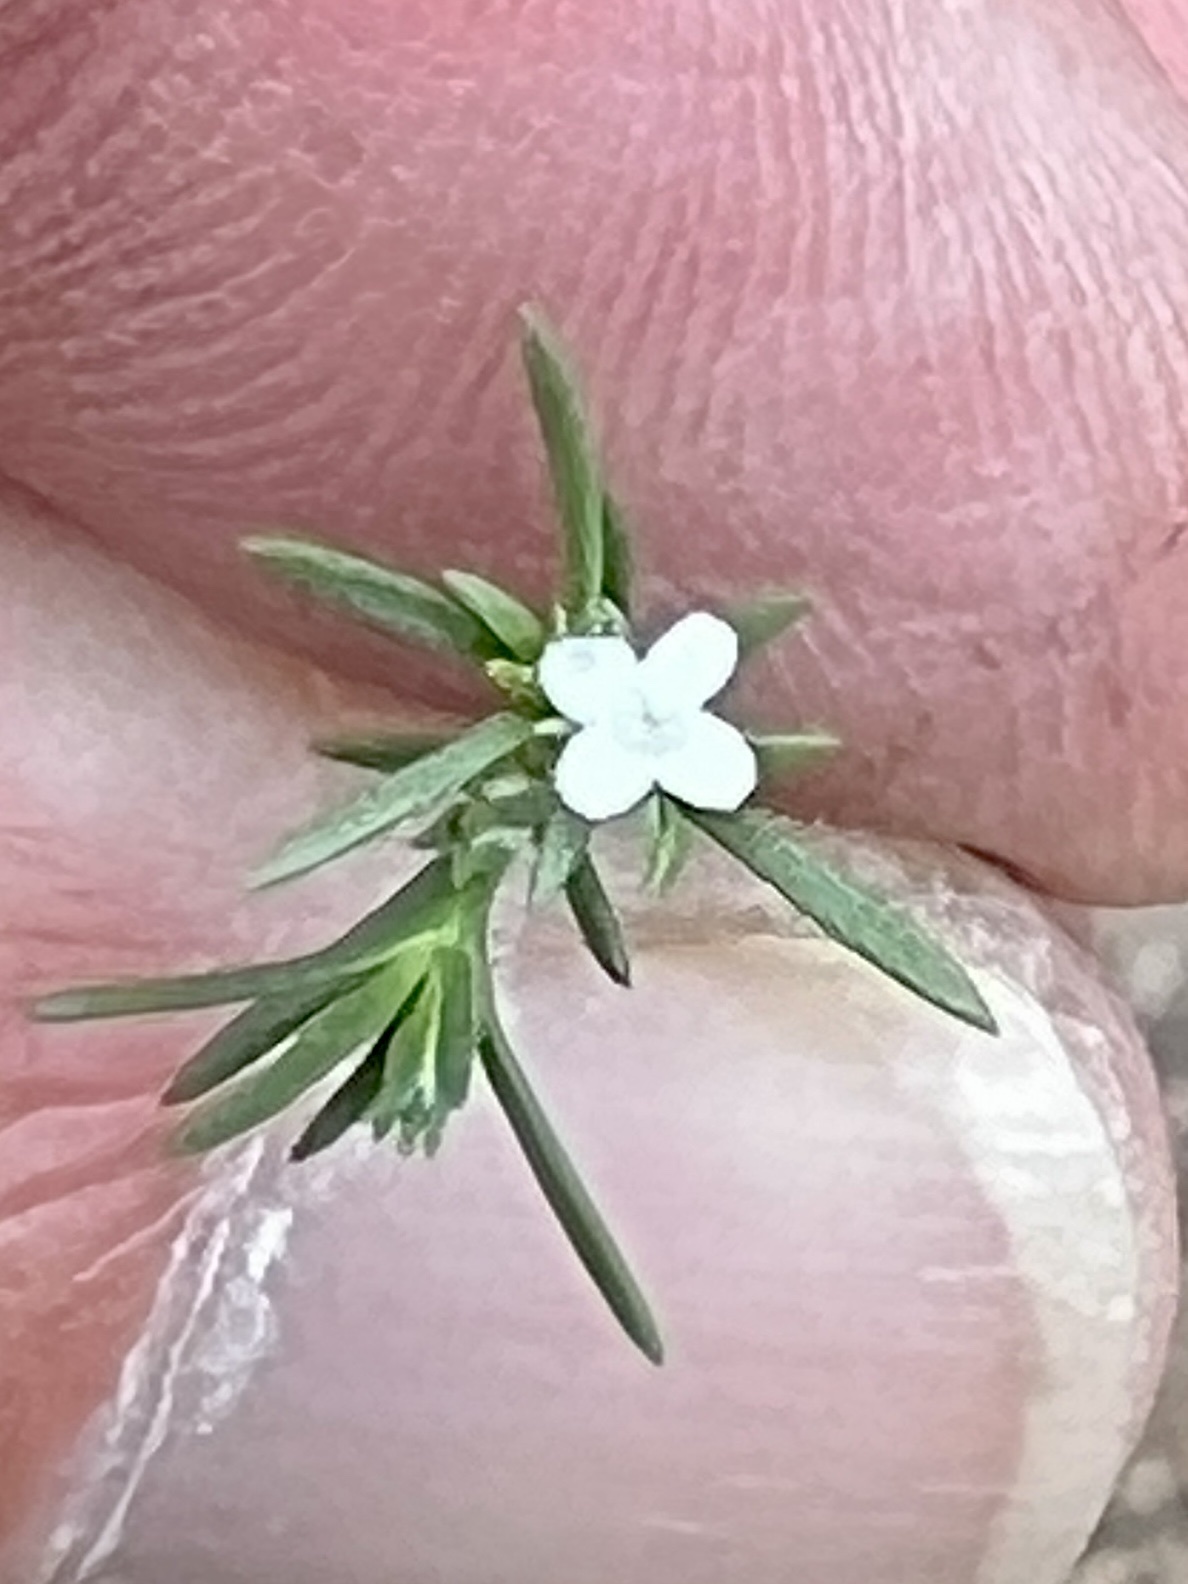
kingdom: Plantae
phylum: Tracheophyta
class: Magnoliopsida
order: Lamiales
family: Tetrachondraceae
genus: Polypremum
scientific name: Polypremum procumbens
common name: Juniper-leaf
